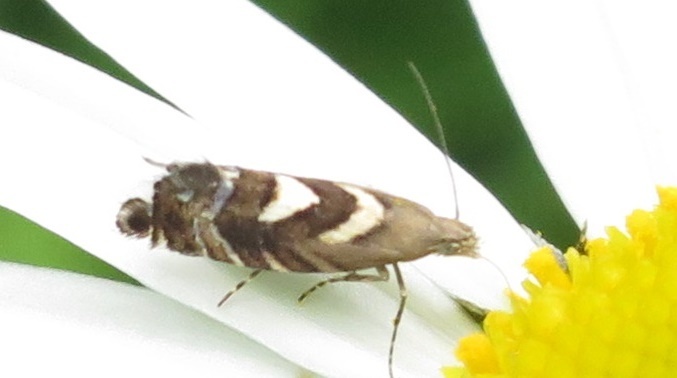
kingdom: Animalia
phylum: Arthropoda
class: Insecta
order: Lepidoptera
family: Glyphipterigidae
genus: Glyphipterix
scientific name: Glyphipterix asteronota
